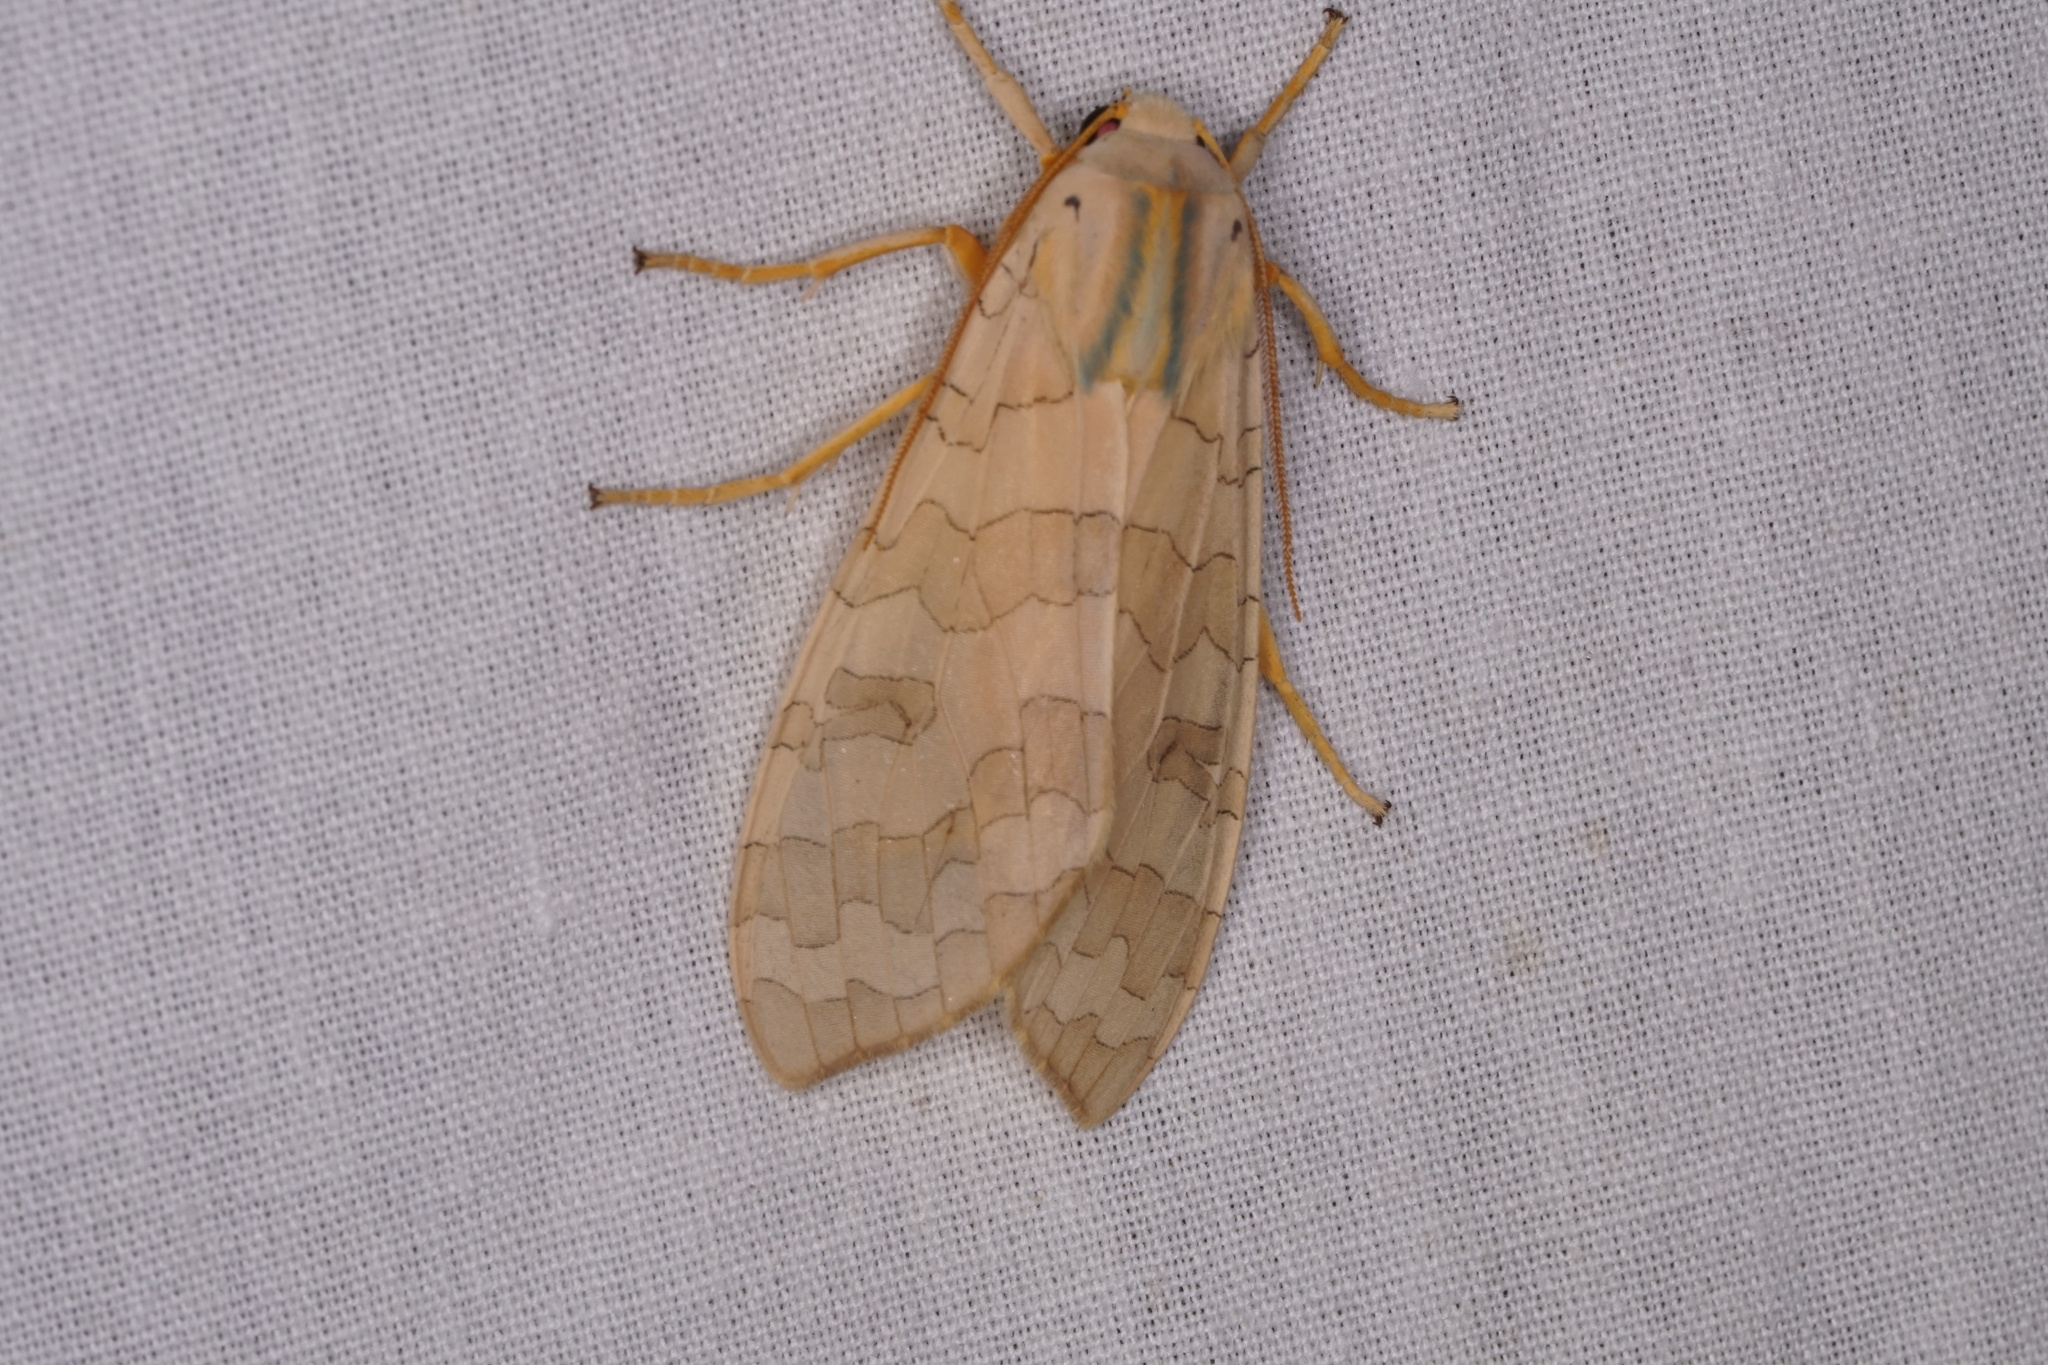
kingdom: Animalia
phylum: Arthropoda
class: Insecta
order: Lepidoptera
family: Erebidae
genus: Halysidota
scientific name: Halysidota
